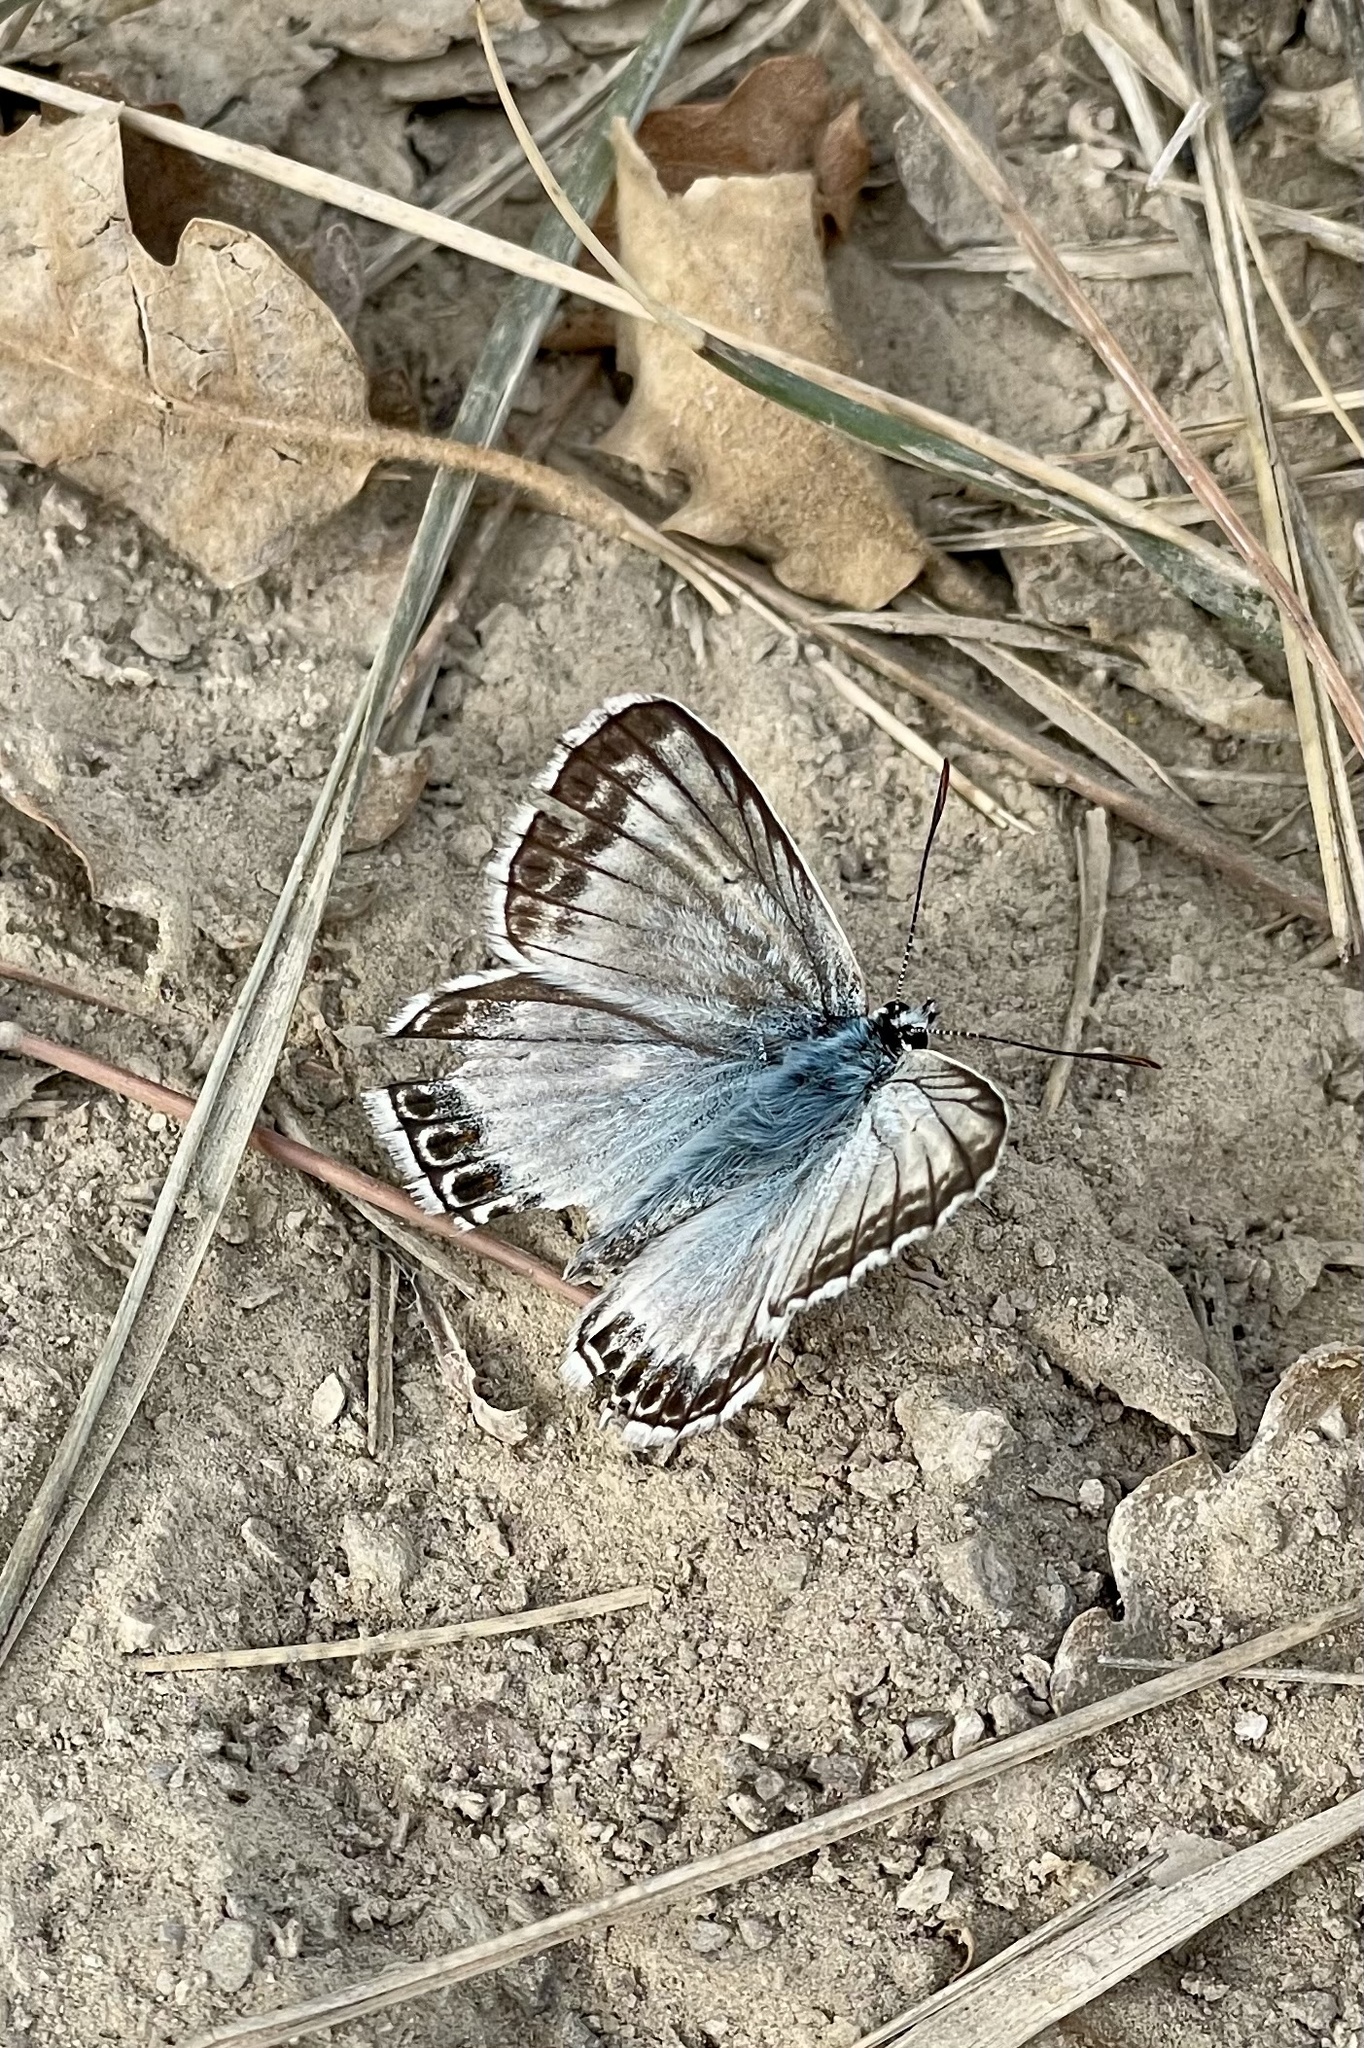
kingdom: Animalia
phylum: Arthropoda
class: Insecta
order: Lepidoptera
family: Lycaenidae
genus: Lysandra
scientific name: Lysandra hispana
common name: Provence chalkhill blue
